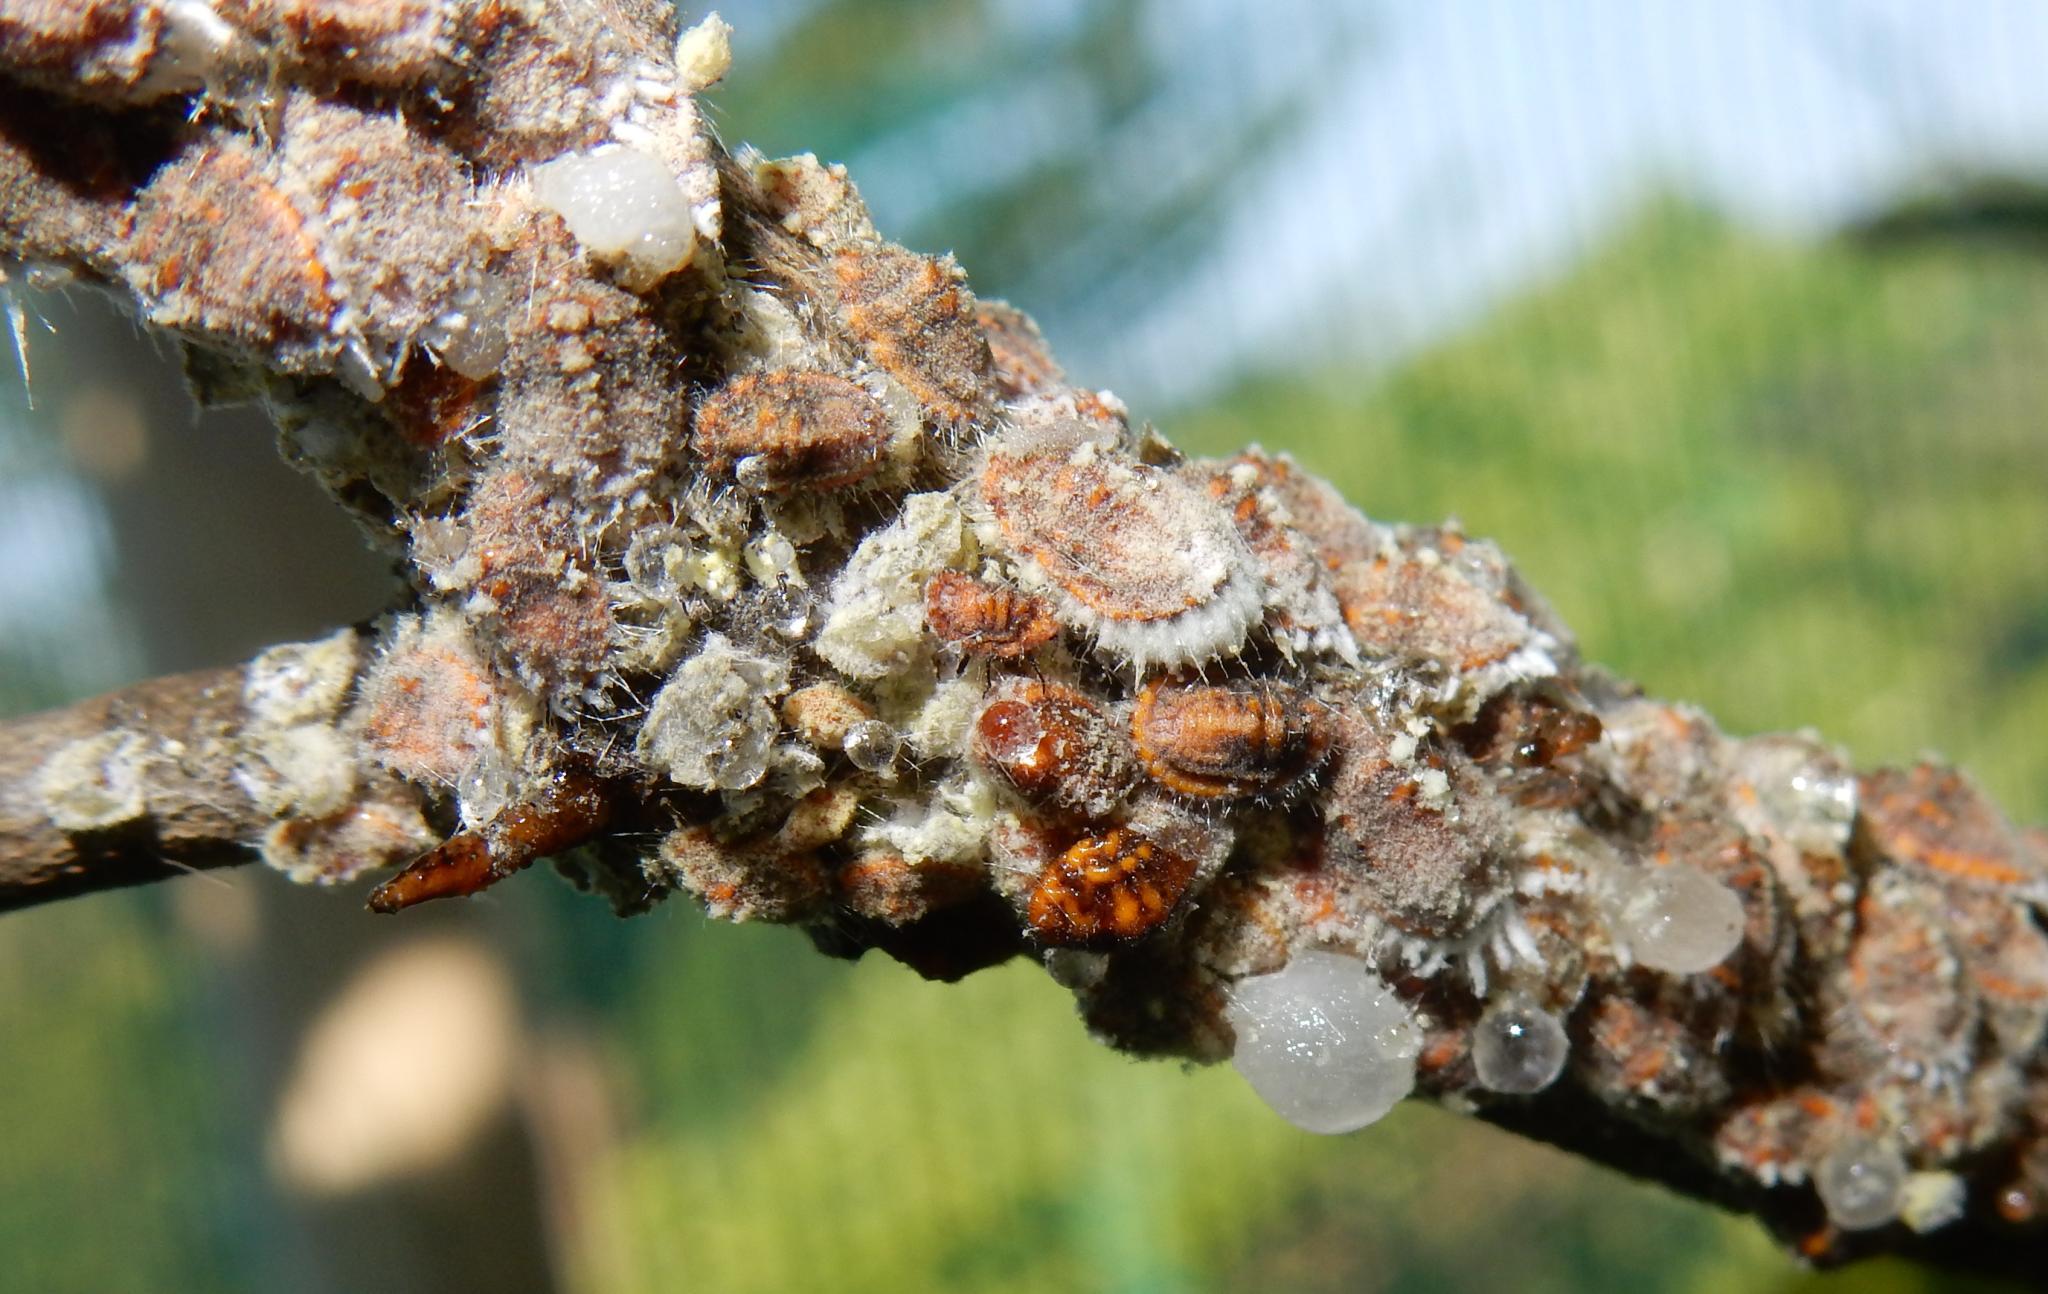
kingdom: Animalia
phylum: Arthropoda
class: Insecta
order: Hemiptera
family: Margarodidae
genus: Icerya
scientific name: Icerya purchasi
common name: Cottony cushion scale
